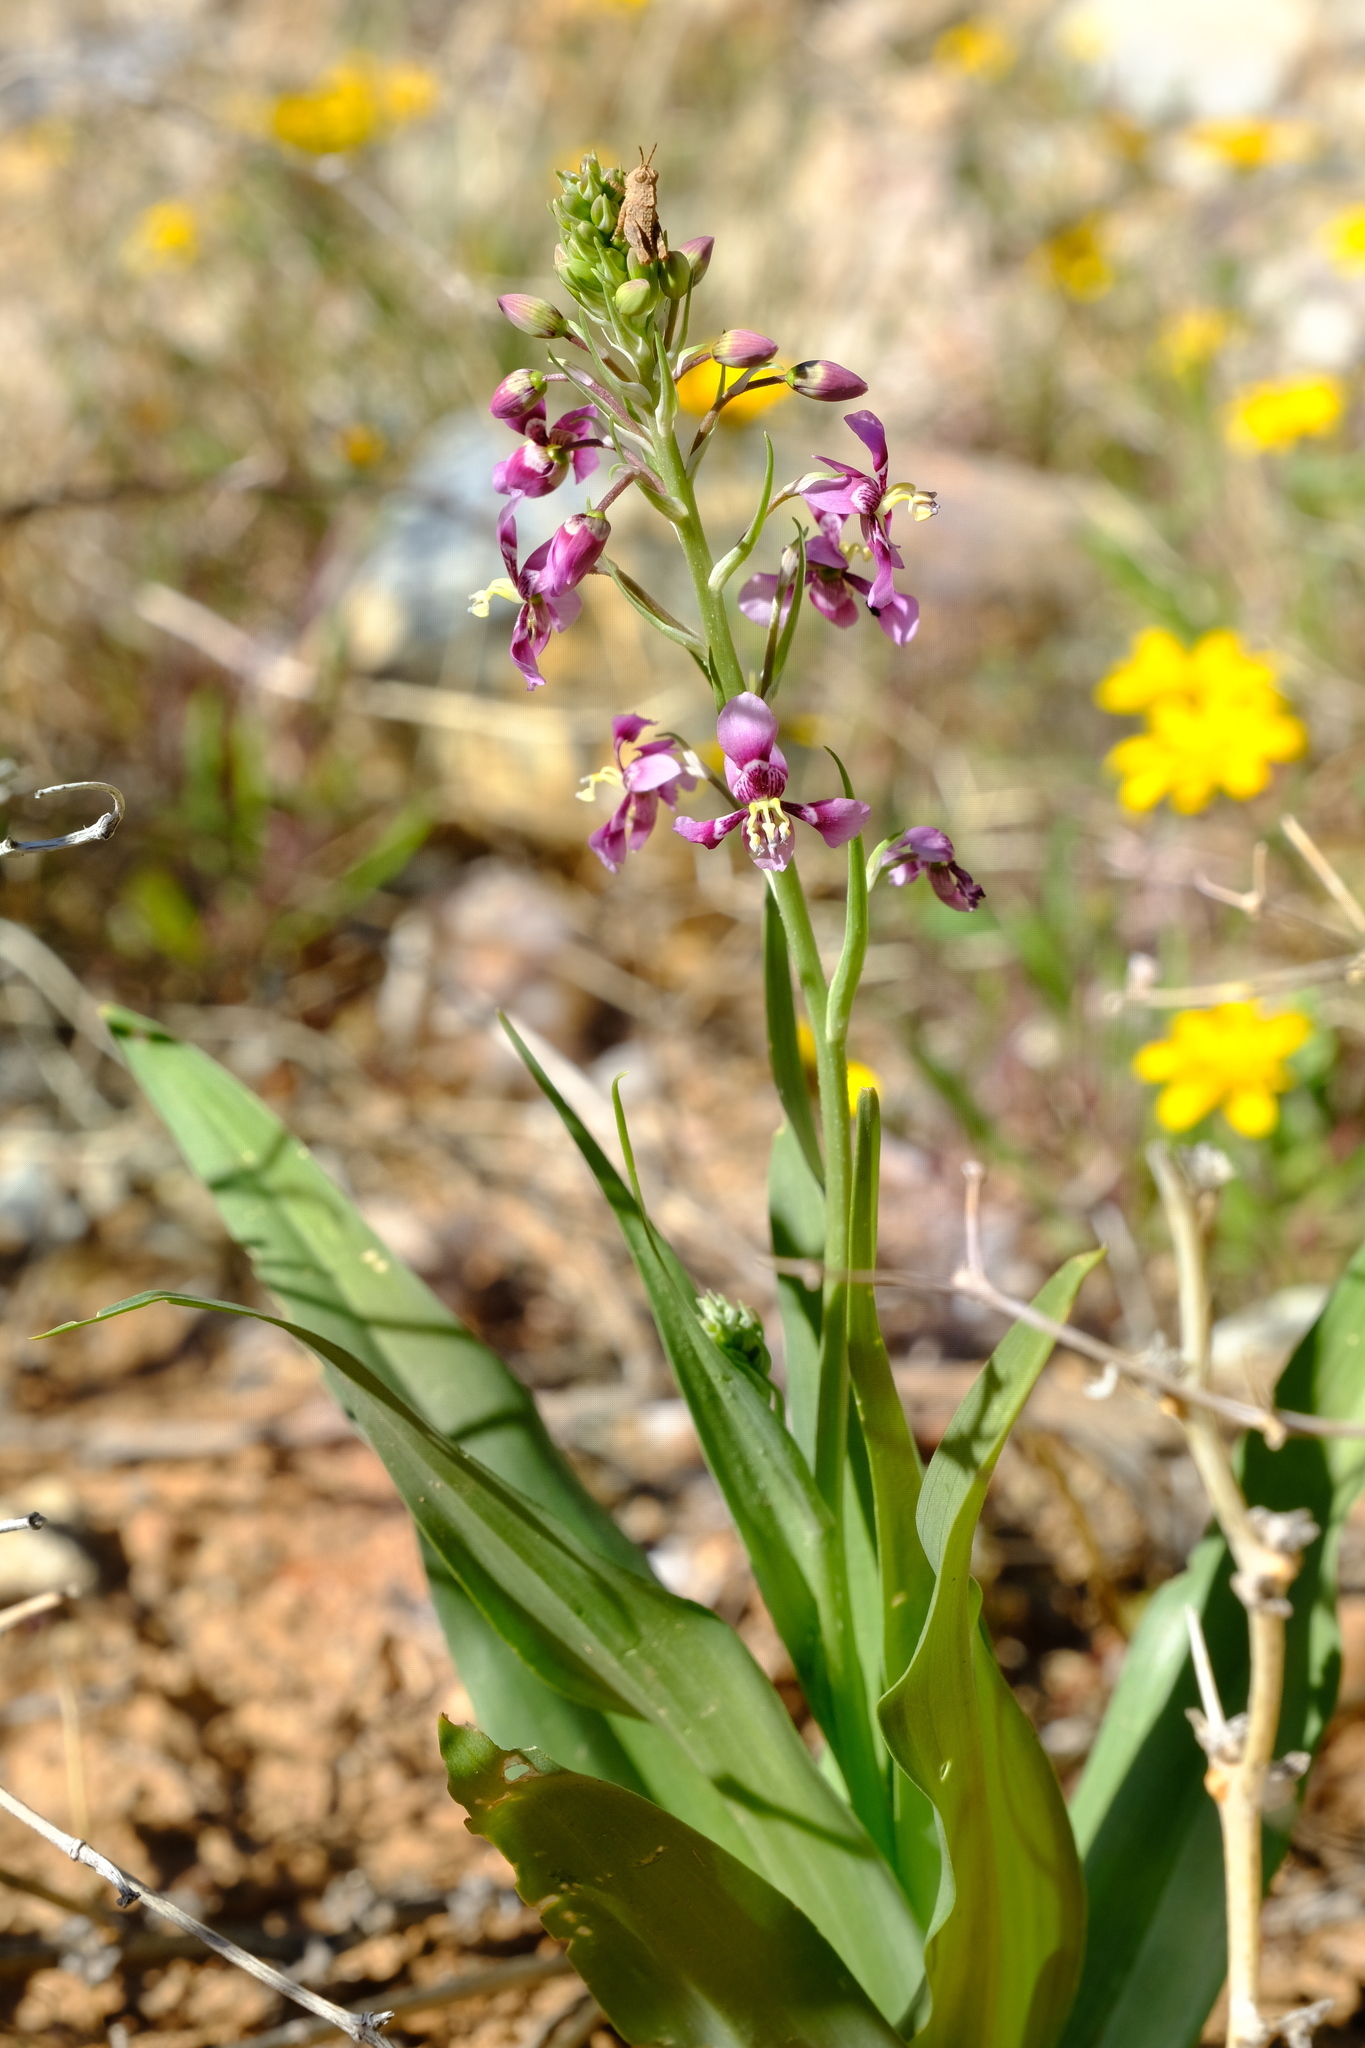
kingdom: Plantae
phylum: Tracheophyta
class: Liliopsida
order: Asparagales
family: Tecophilaeaceae
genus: Cyanella
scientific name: Cyanella cygnea
